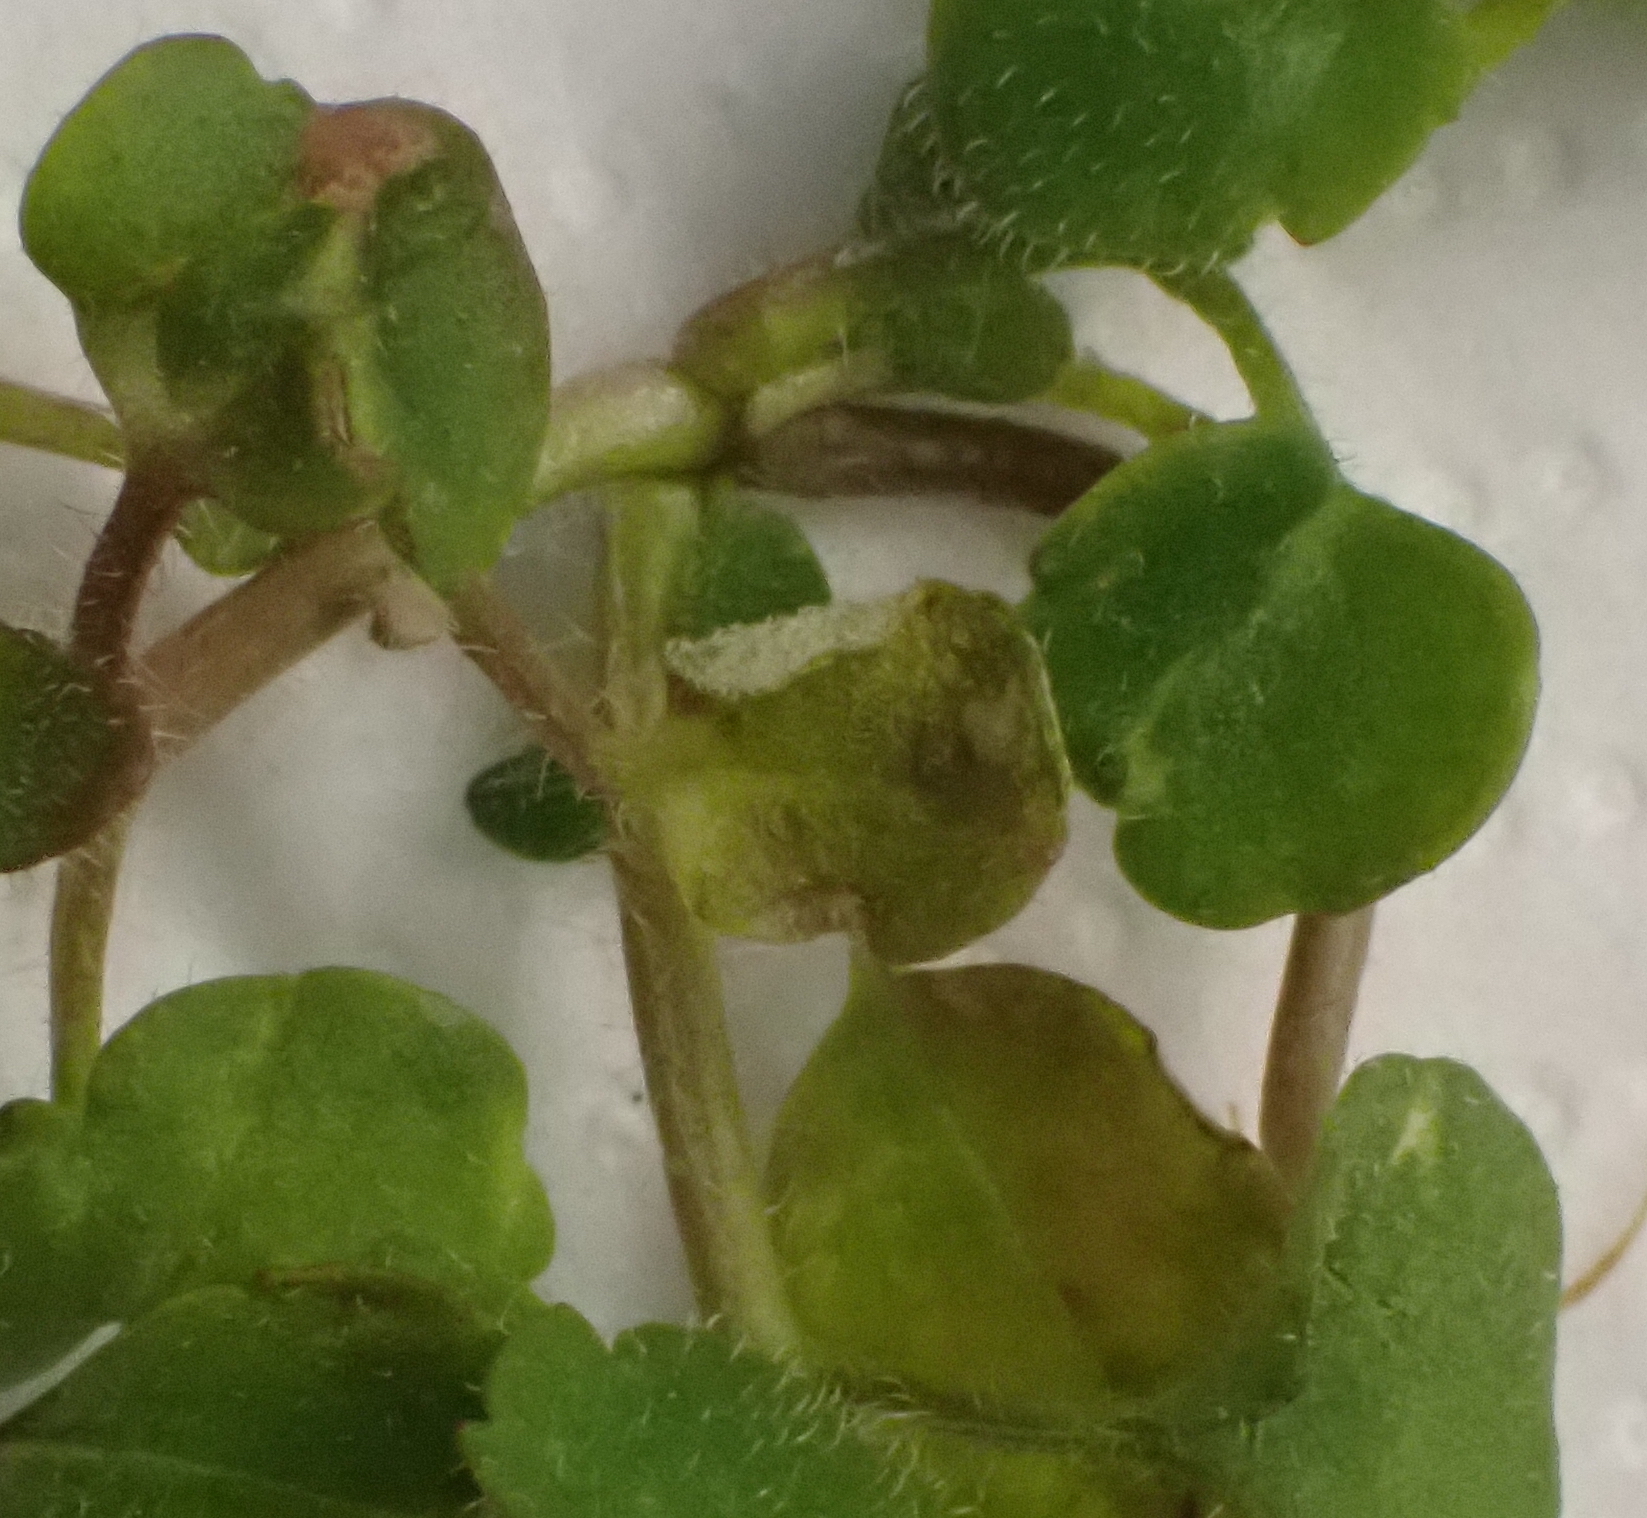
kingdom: Plantae
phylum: Tracheophyta
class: Magnoliopsida
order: Lamiales
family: Plantaginaceae
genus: Veronica
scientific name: Veronica sublobata
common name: False ivy-leaved speedwell
